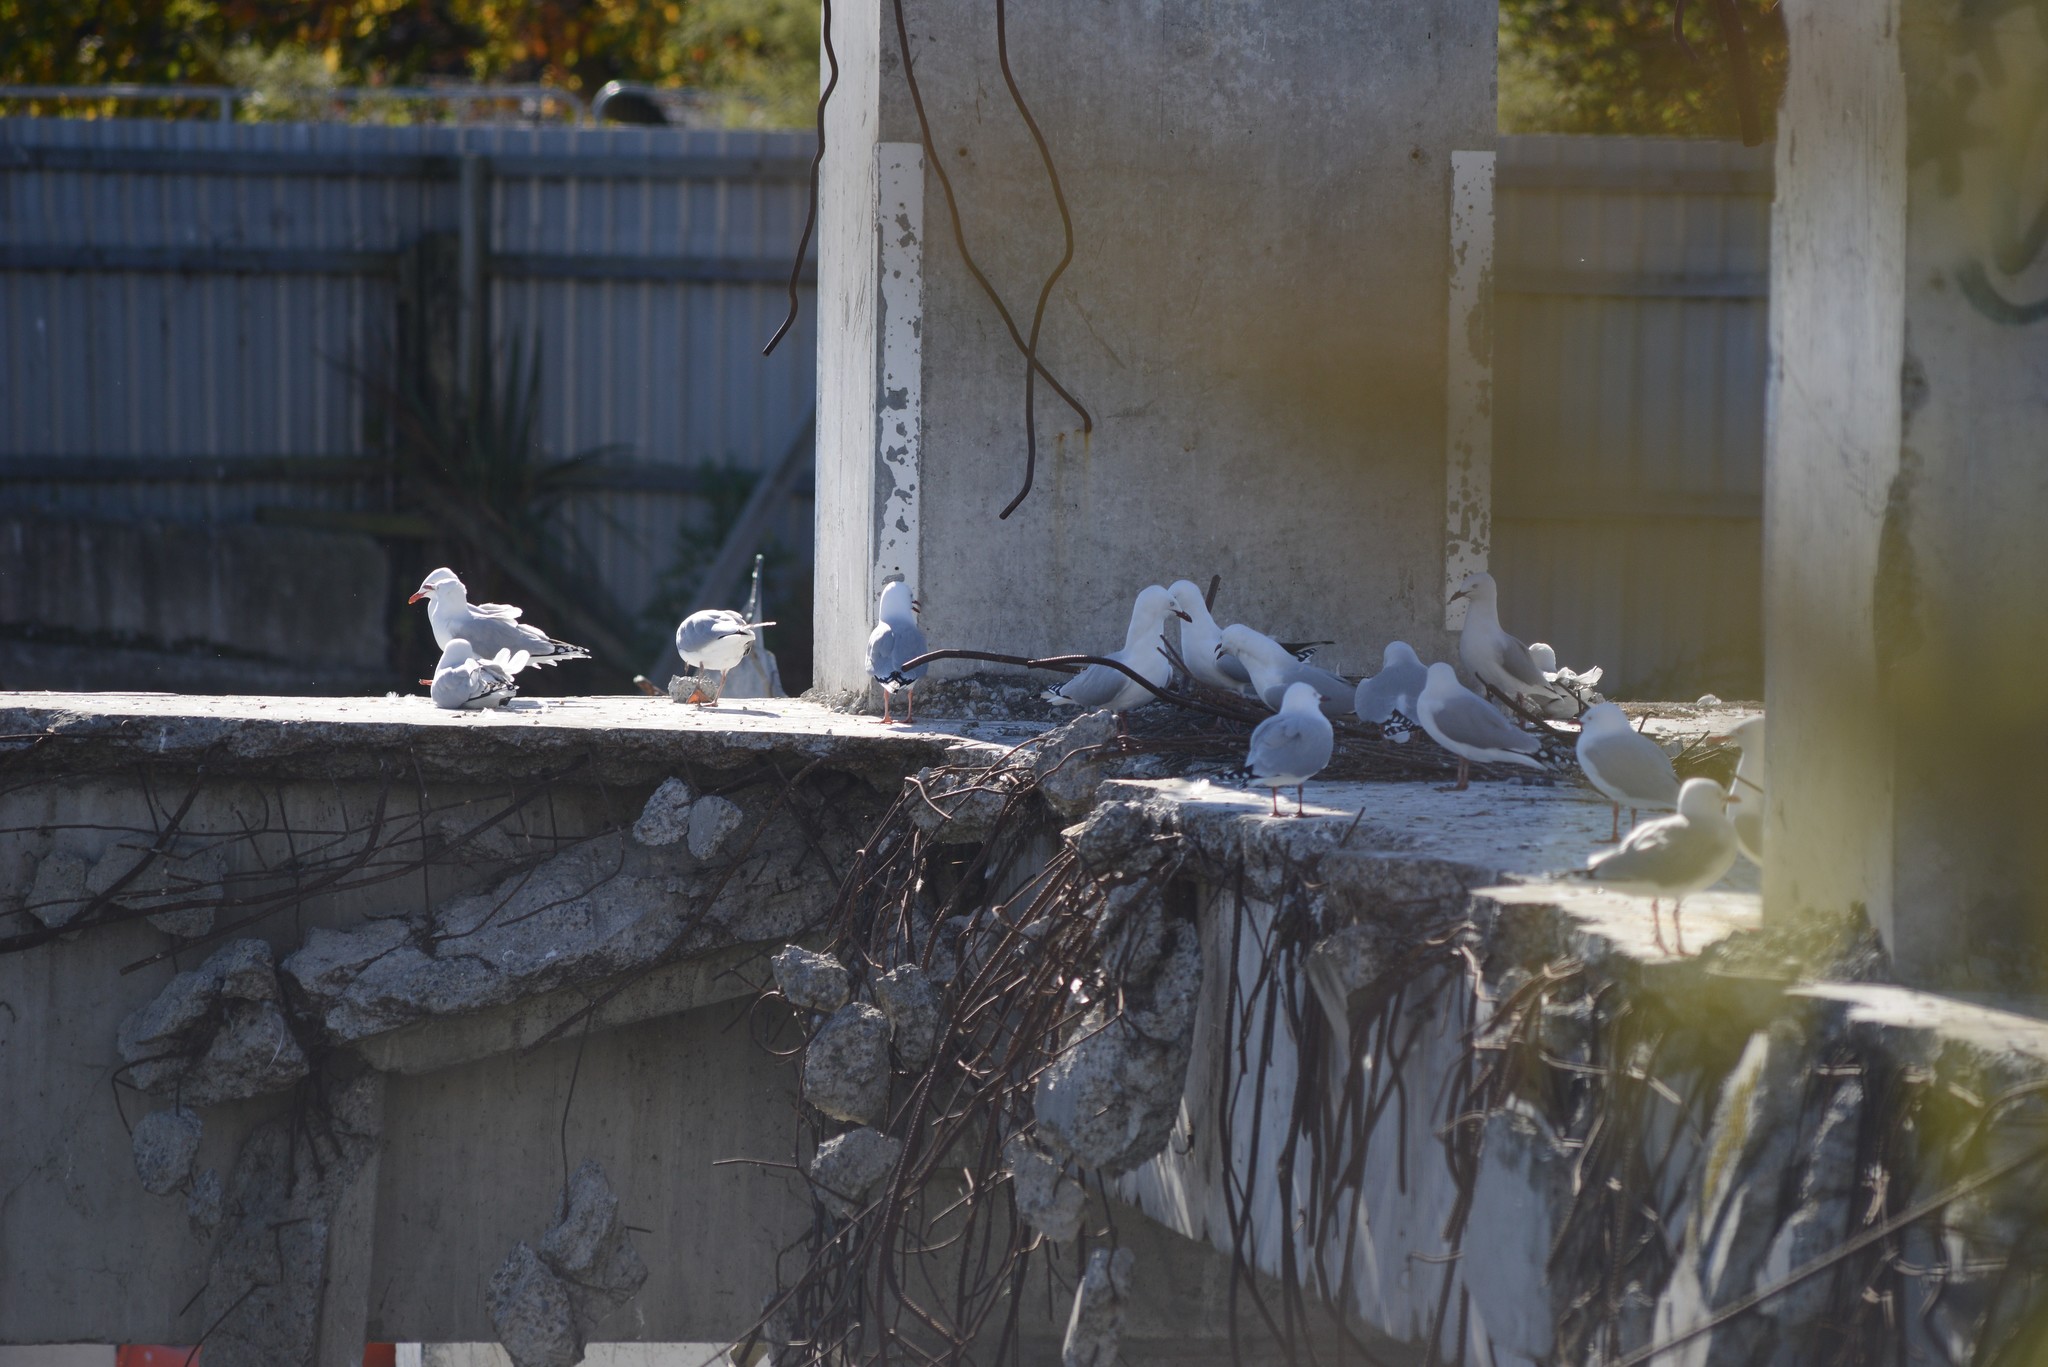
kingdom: Animalia
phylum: Chordata
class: Aves
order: Charadriiformes
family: Laridae
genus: Chroicocephalus
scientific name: Chroicocephalus novaehollandiae
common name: Silver gull
